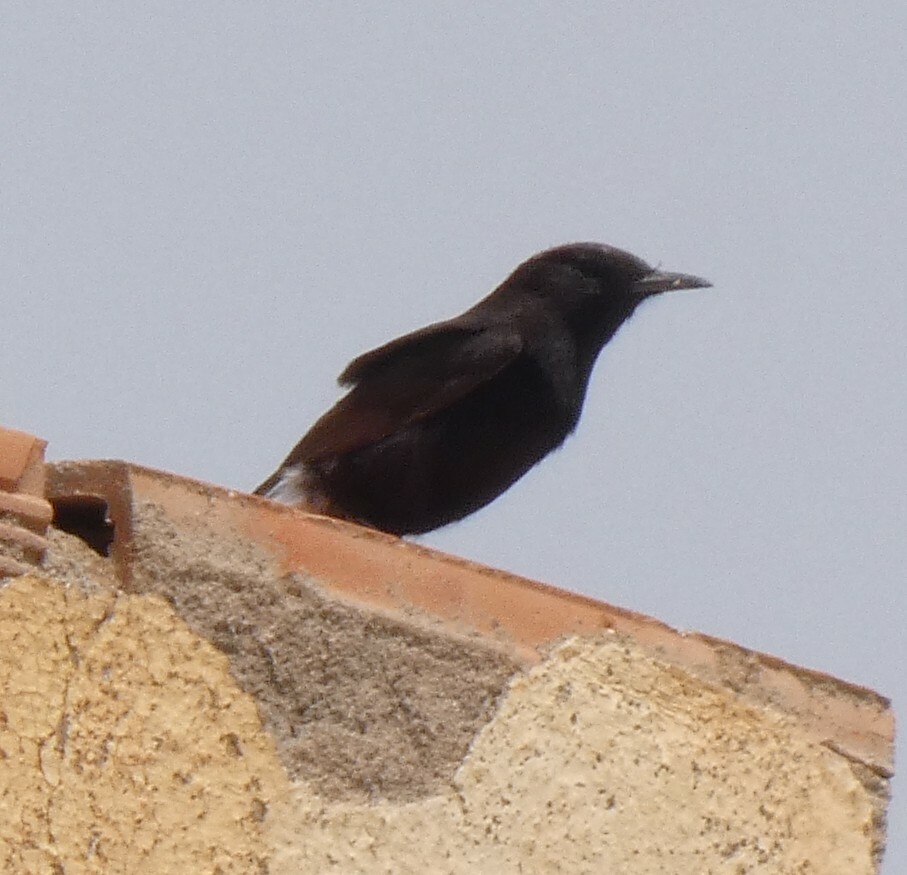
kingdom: Animalia
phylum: Chordata
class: Aves
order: Passeriformes
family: Muscicapidae
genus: Oenanthe
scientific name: Oenanthe leucopyga
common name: White-crowned wheatear
